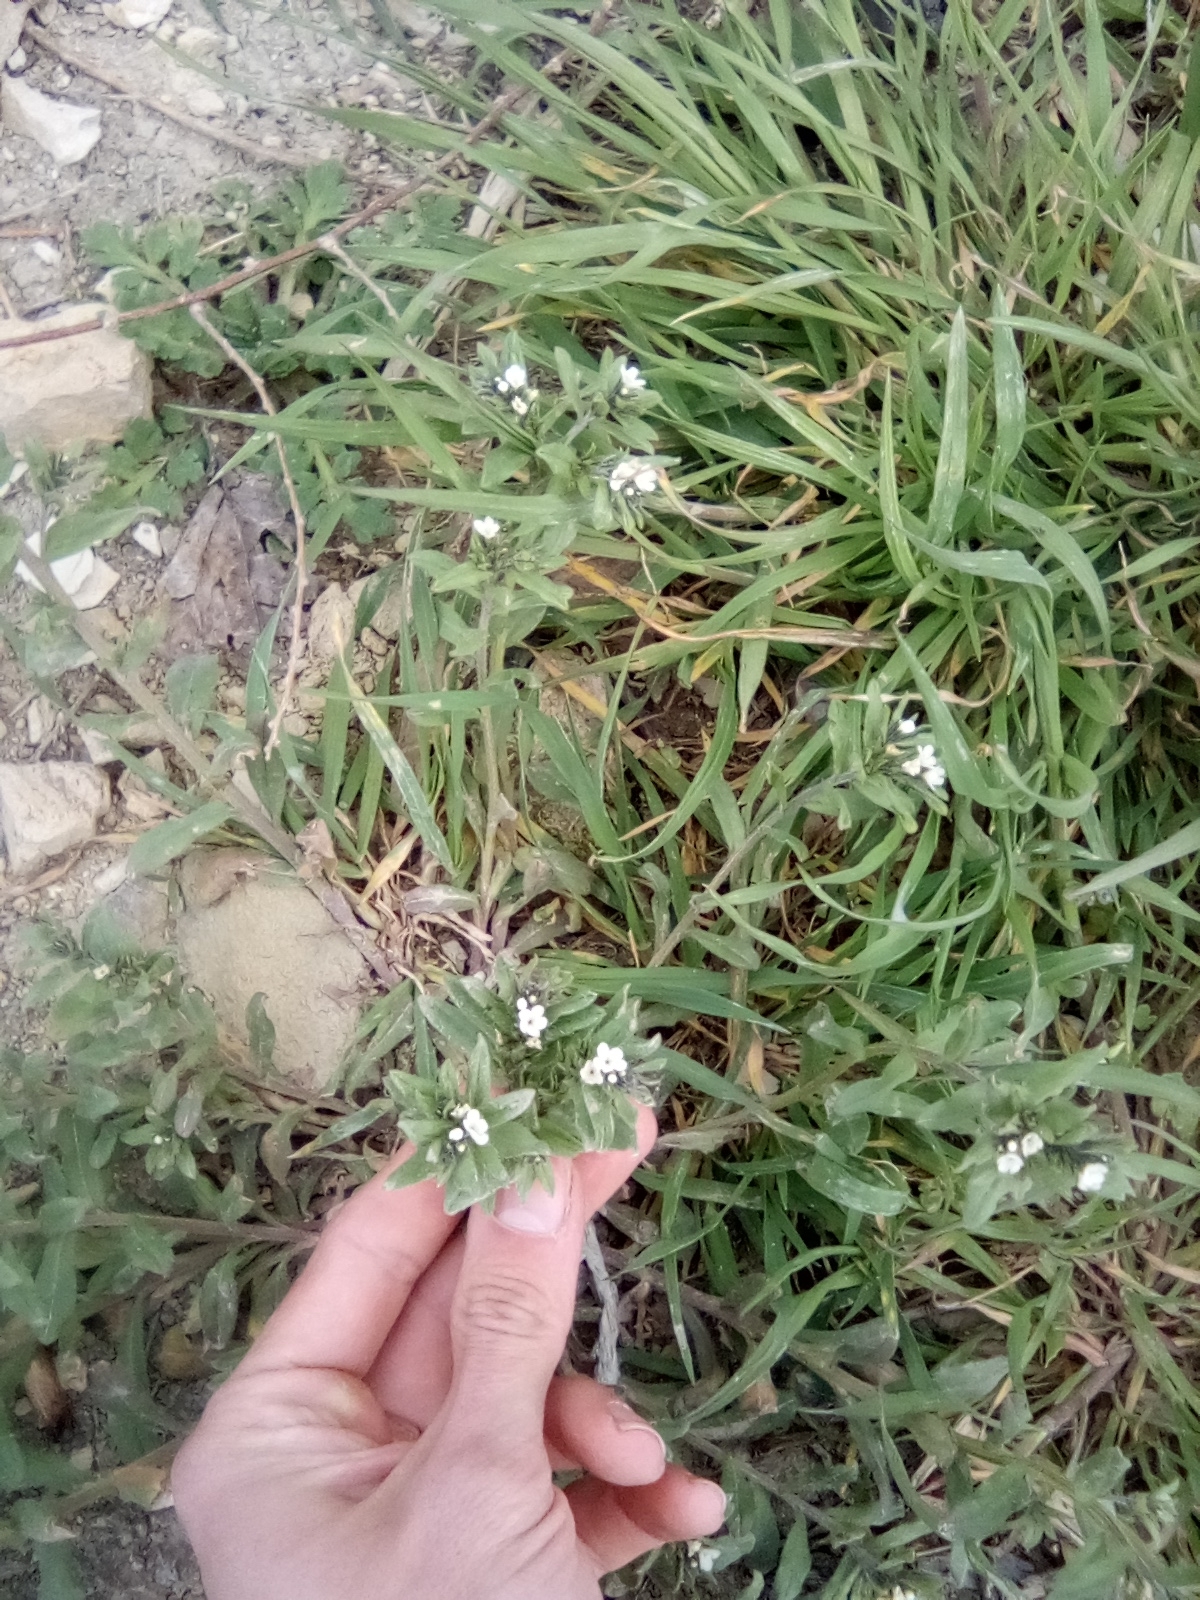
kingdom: Plantae
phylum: Tracheophyta
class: Magnoliopsida
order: Boraginales
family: Boraginaceae
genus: Buglossoides
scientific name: Buglossoides arvensis
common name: Corn gromwell
